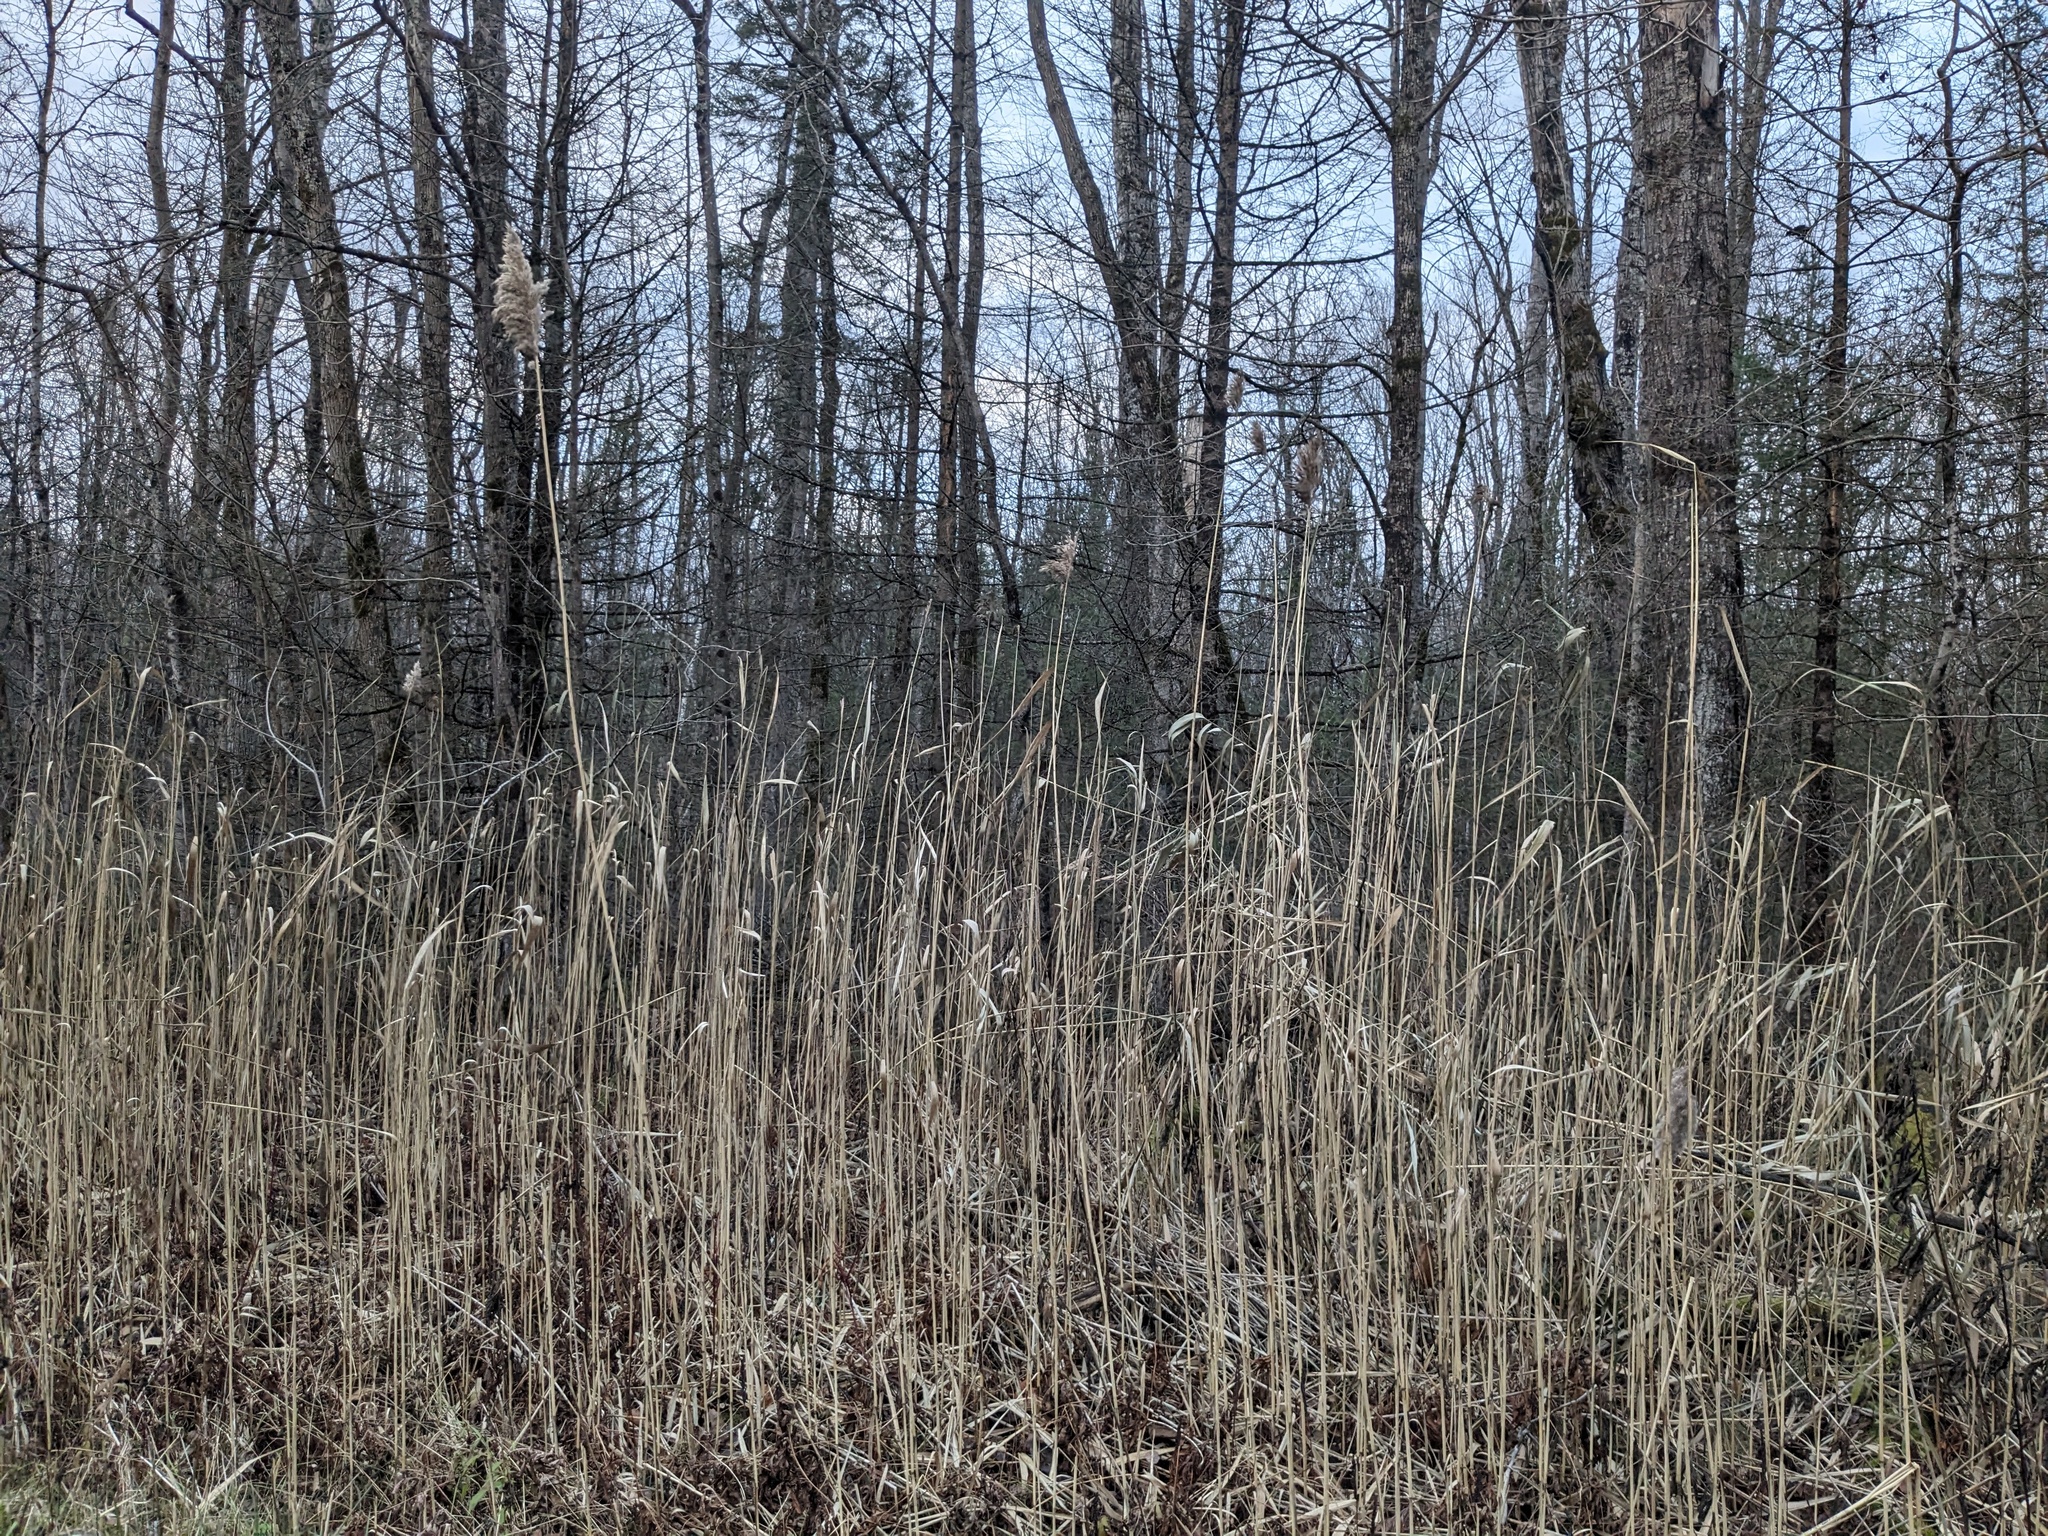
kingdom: Plantae
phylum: Tracheophyta
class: Liliopsida
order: Poales
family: Poaceae
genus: Phragmites
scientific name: Phragmites australis
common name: Common reed
